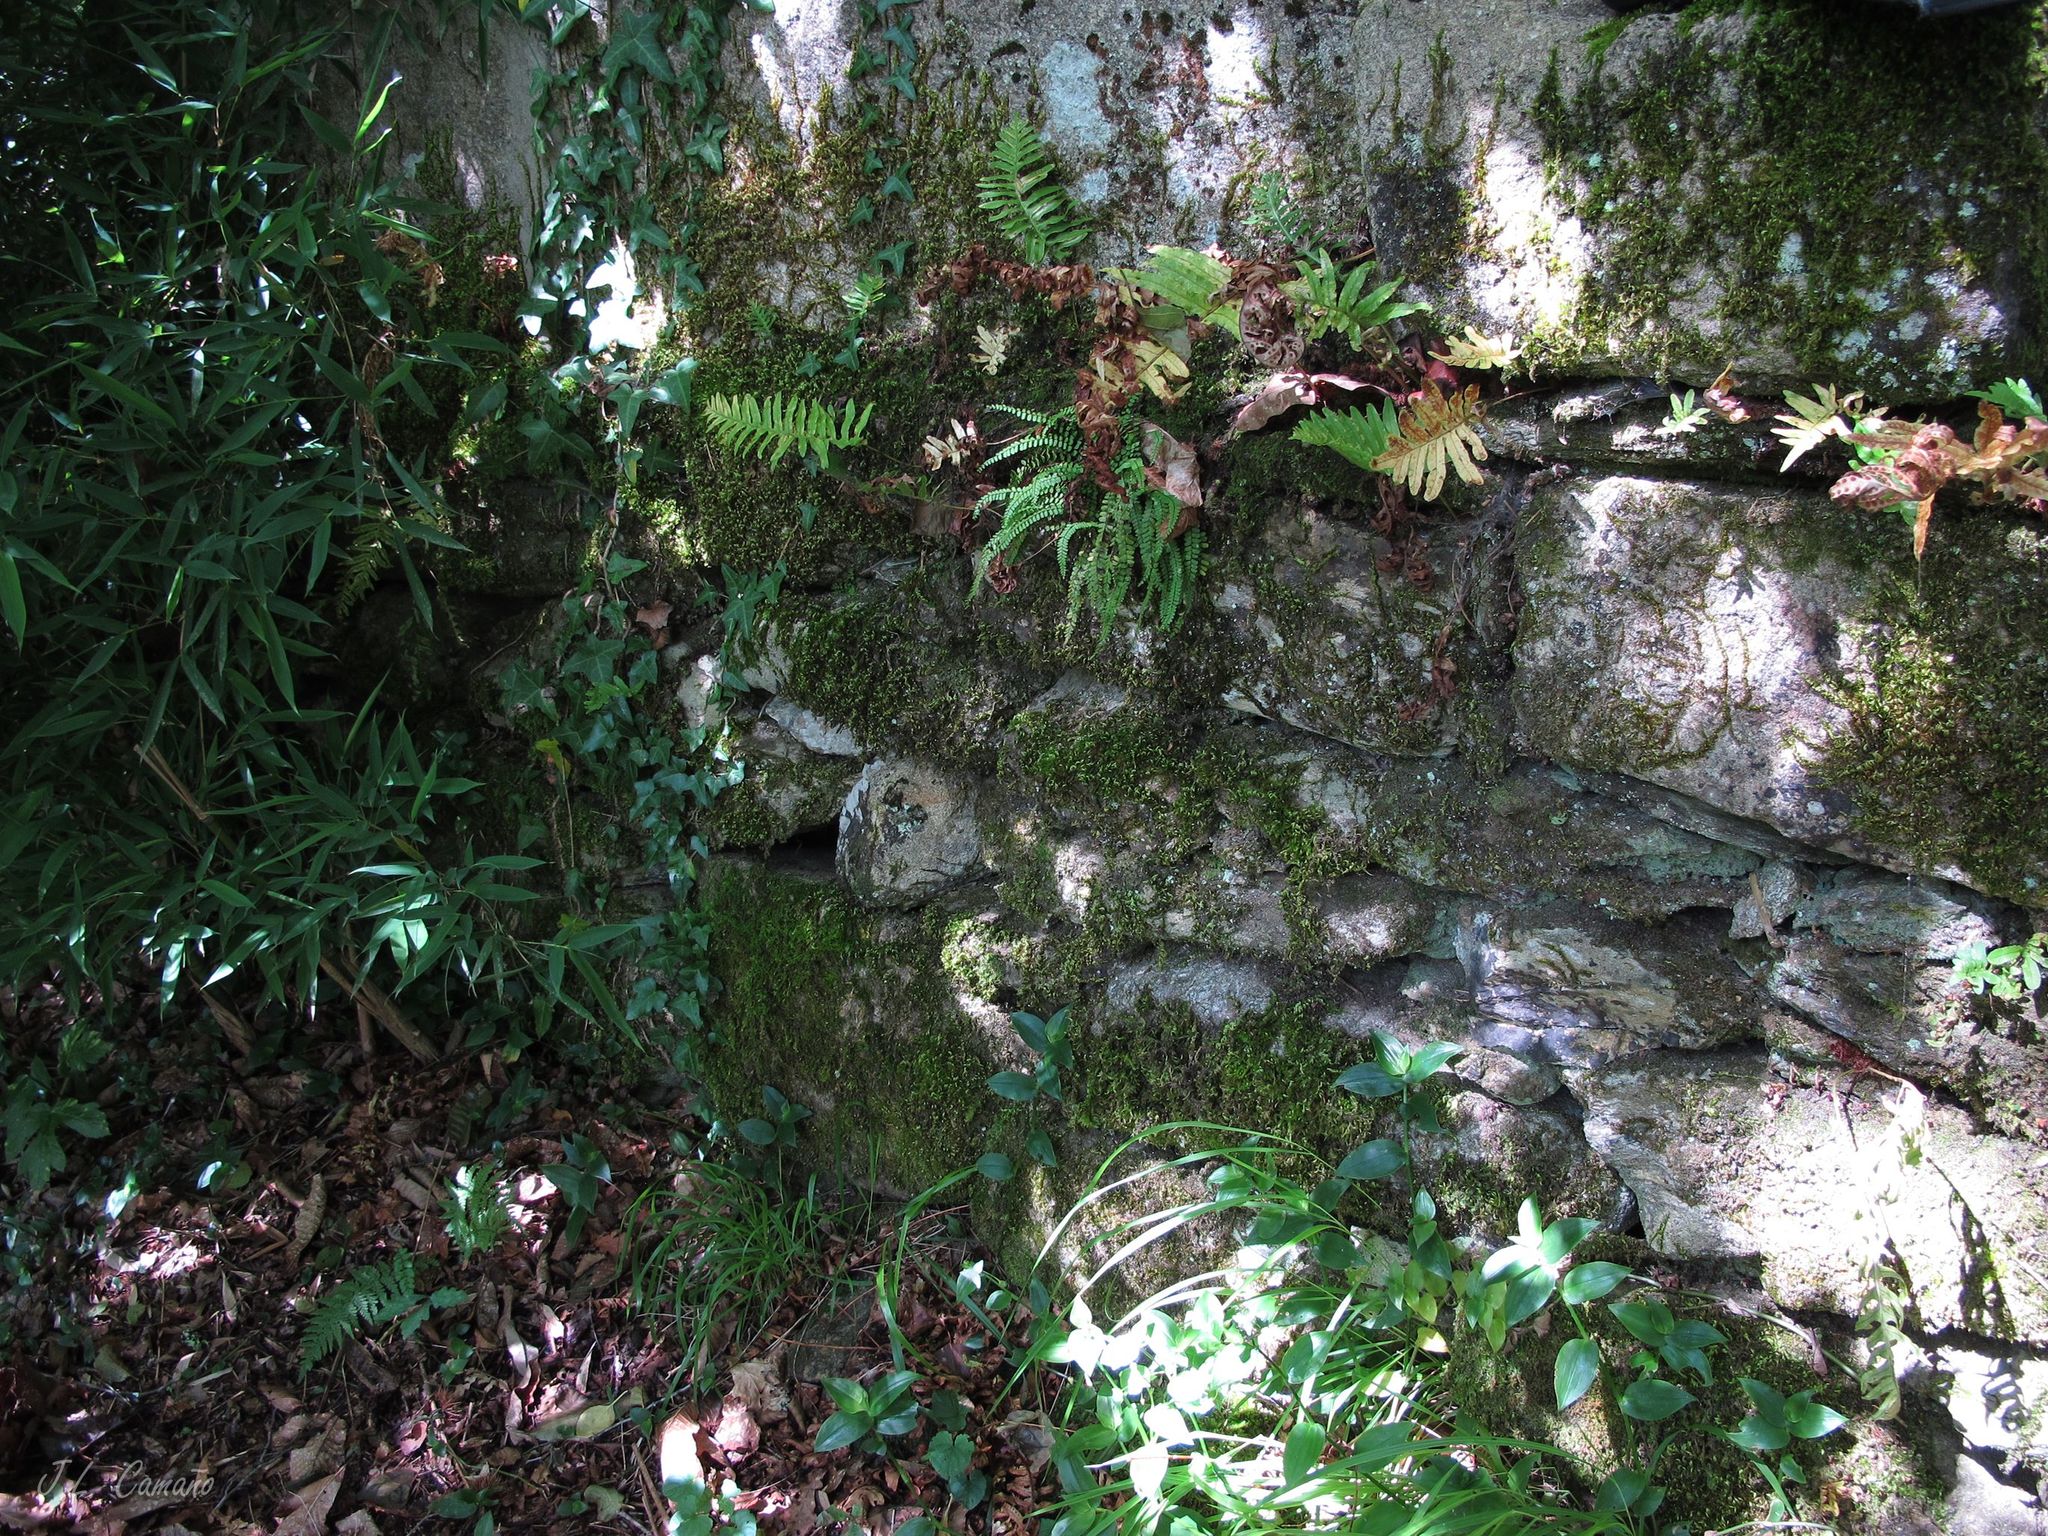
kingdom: Plantae
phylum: Bryophyta
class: Bryopsida
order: Hypnales
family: Brachytheciaceae
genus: Homalothecium
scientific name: Homalothecium sericeum
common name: Silky wall feather-moss
